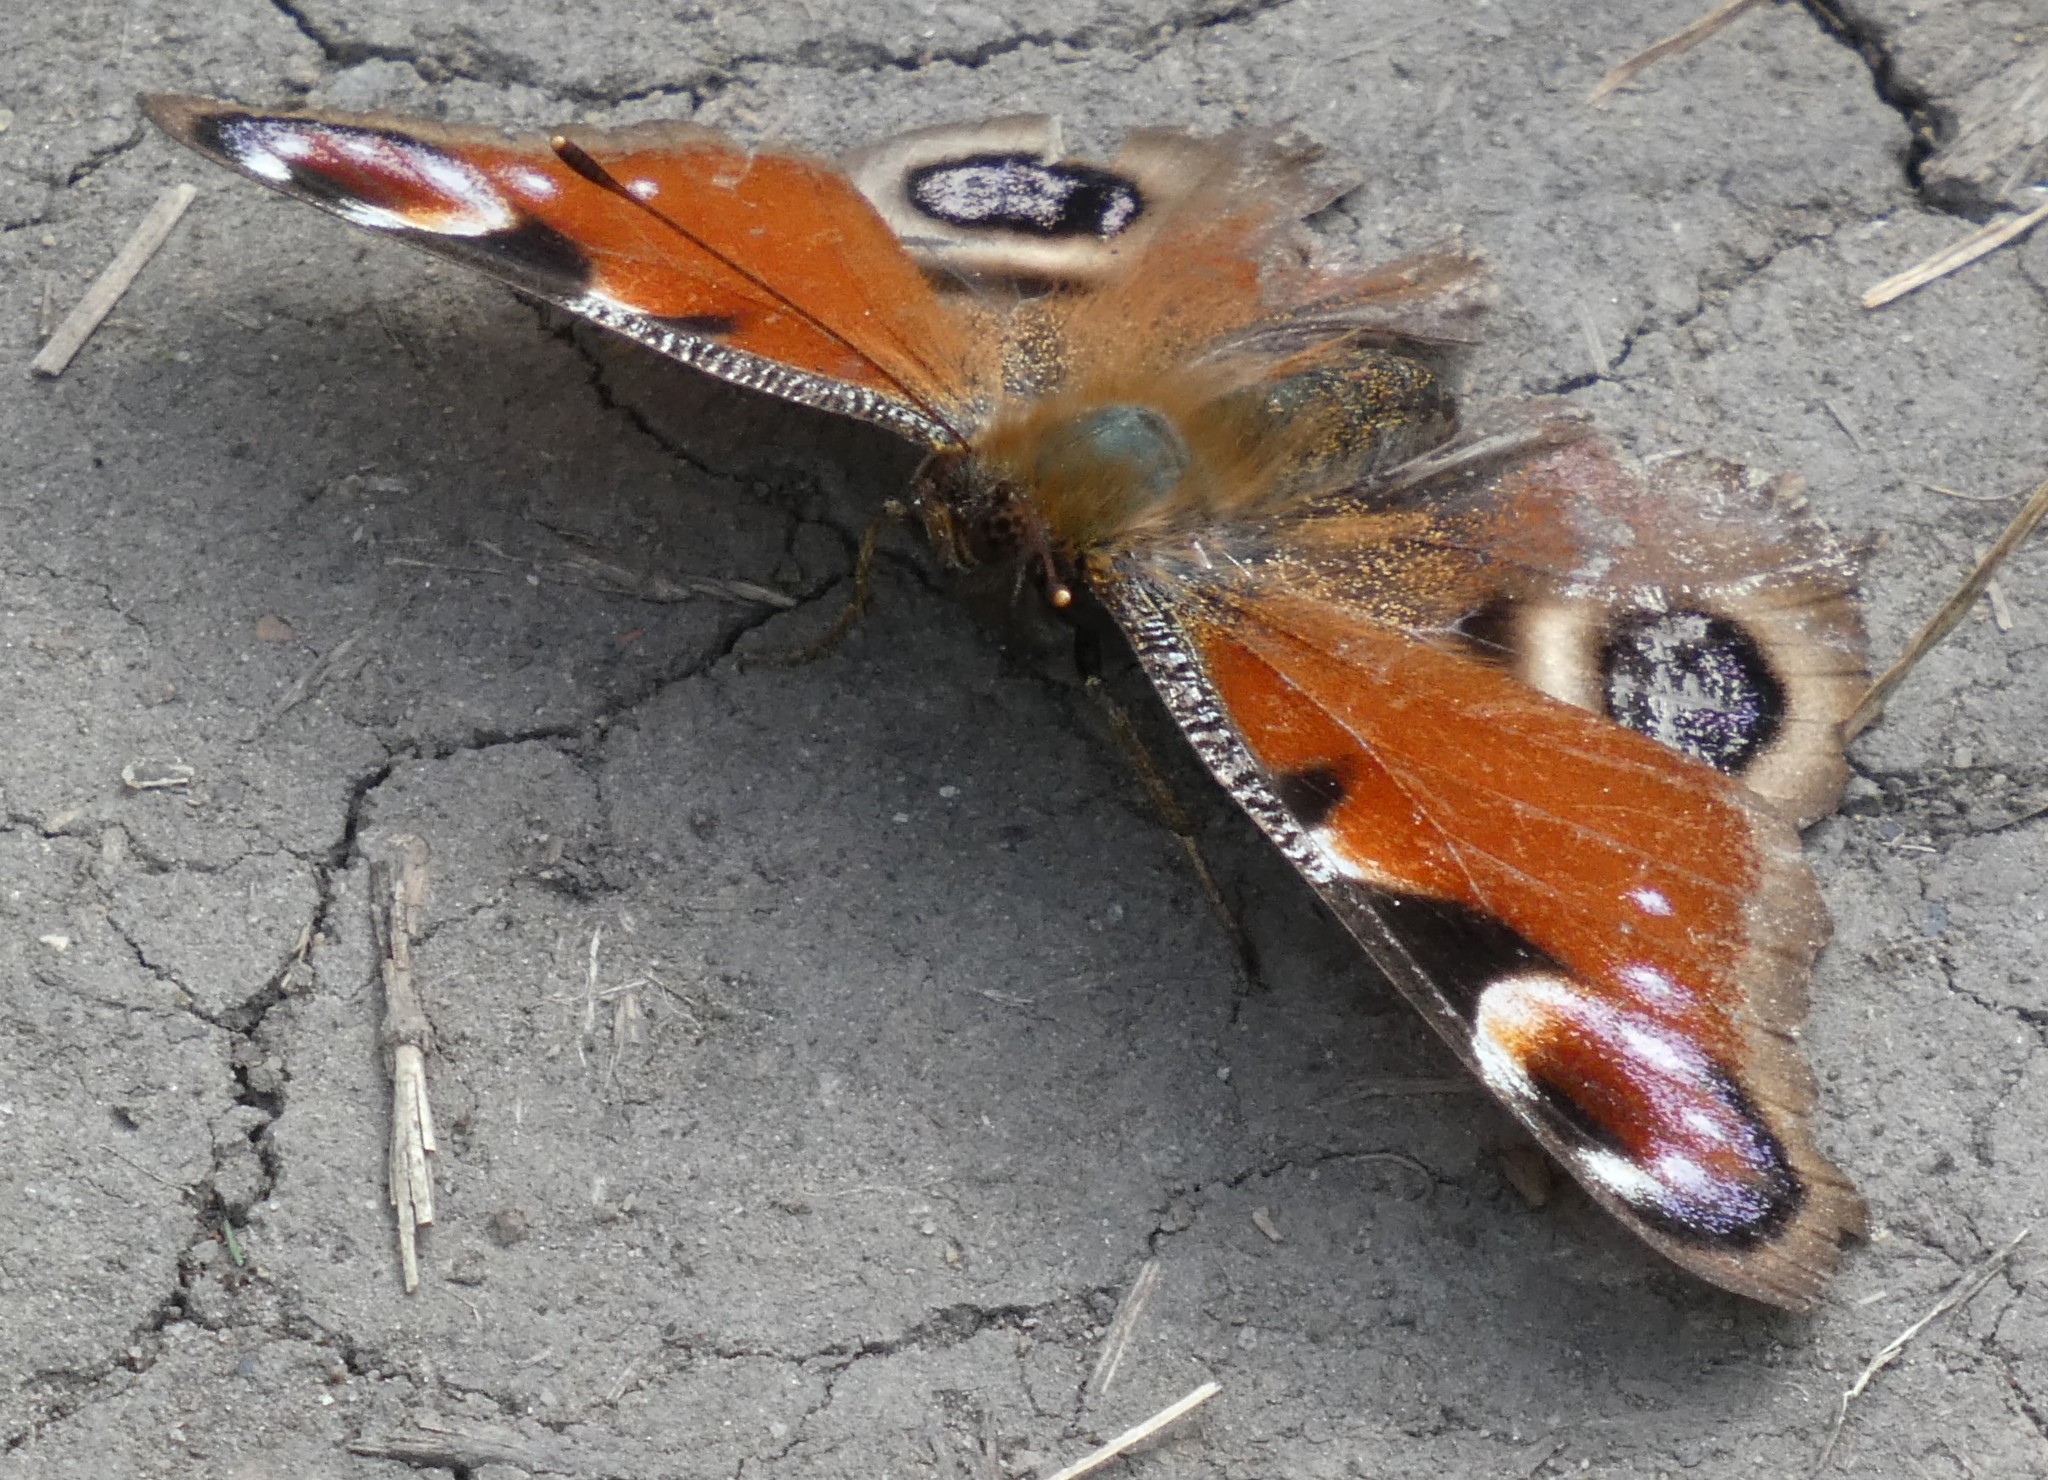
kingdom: Animalia
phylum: Arthropoda
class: Insecta
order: Lepidoptera
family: Nymphalidae
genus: Aglais
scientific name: Aglais io
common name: Peacock
